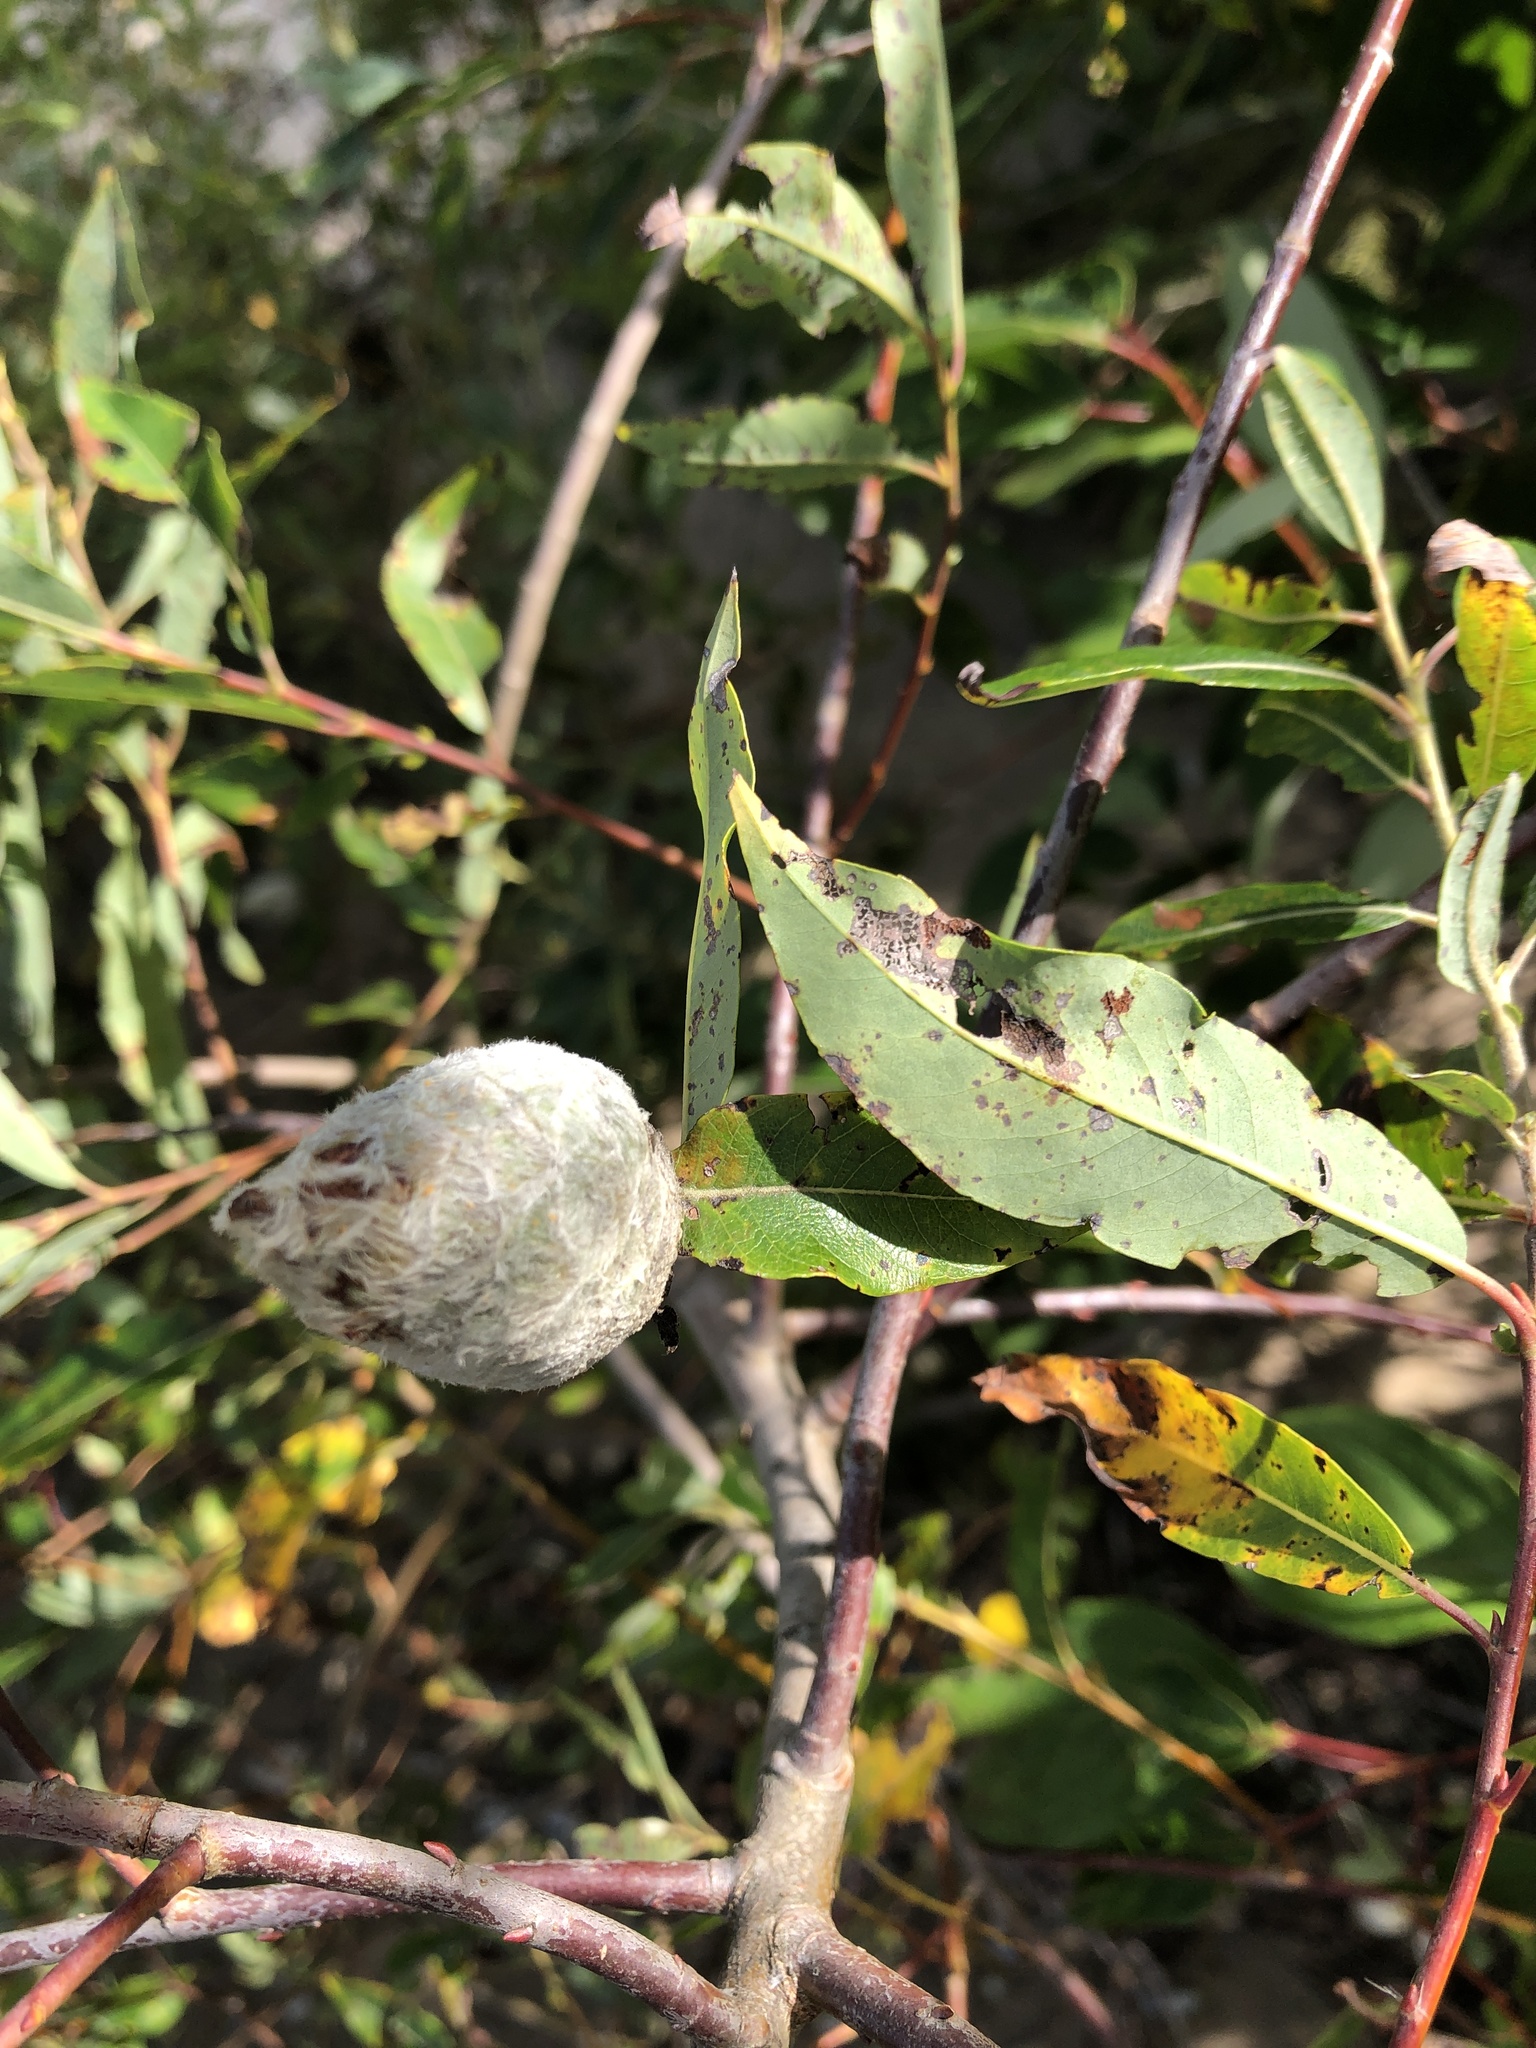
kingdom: Animalia
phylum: Arthropoda
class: Insecta
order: Diptera
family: Cecidomyiidae
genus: Rabdophaga
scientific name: Rabdophaga strobiloides
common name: Willow pinecone gall midge
